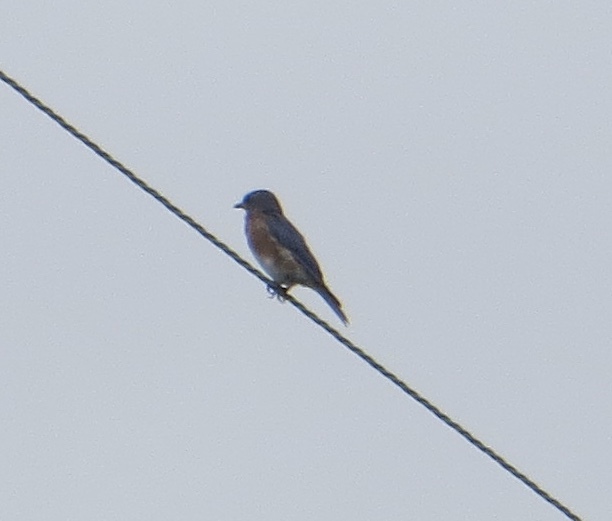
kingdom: Animalia
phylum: Chordata
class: Aves
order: Passeriformes
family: Turdidae
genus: Sialia
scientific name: Sialia sialis
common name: Eastern bluebird
